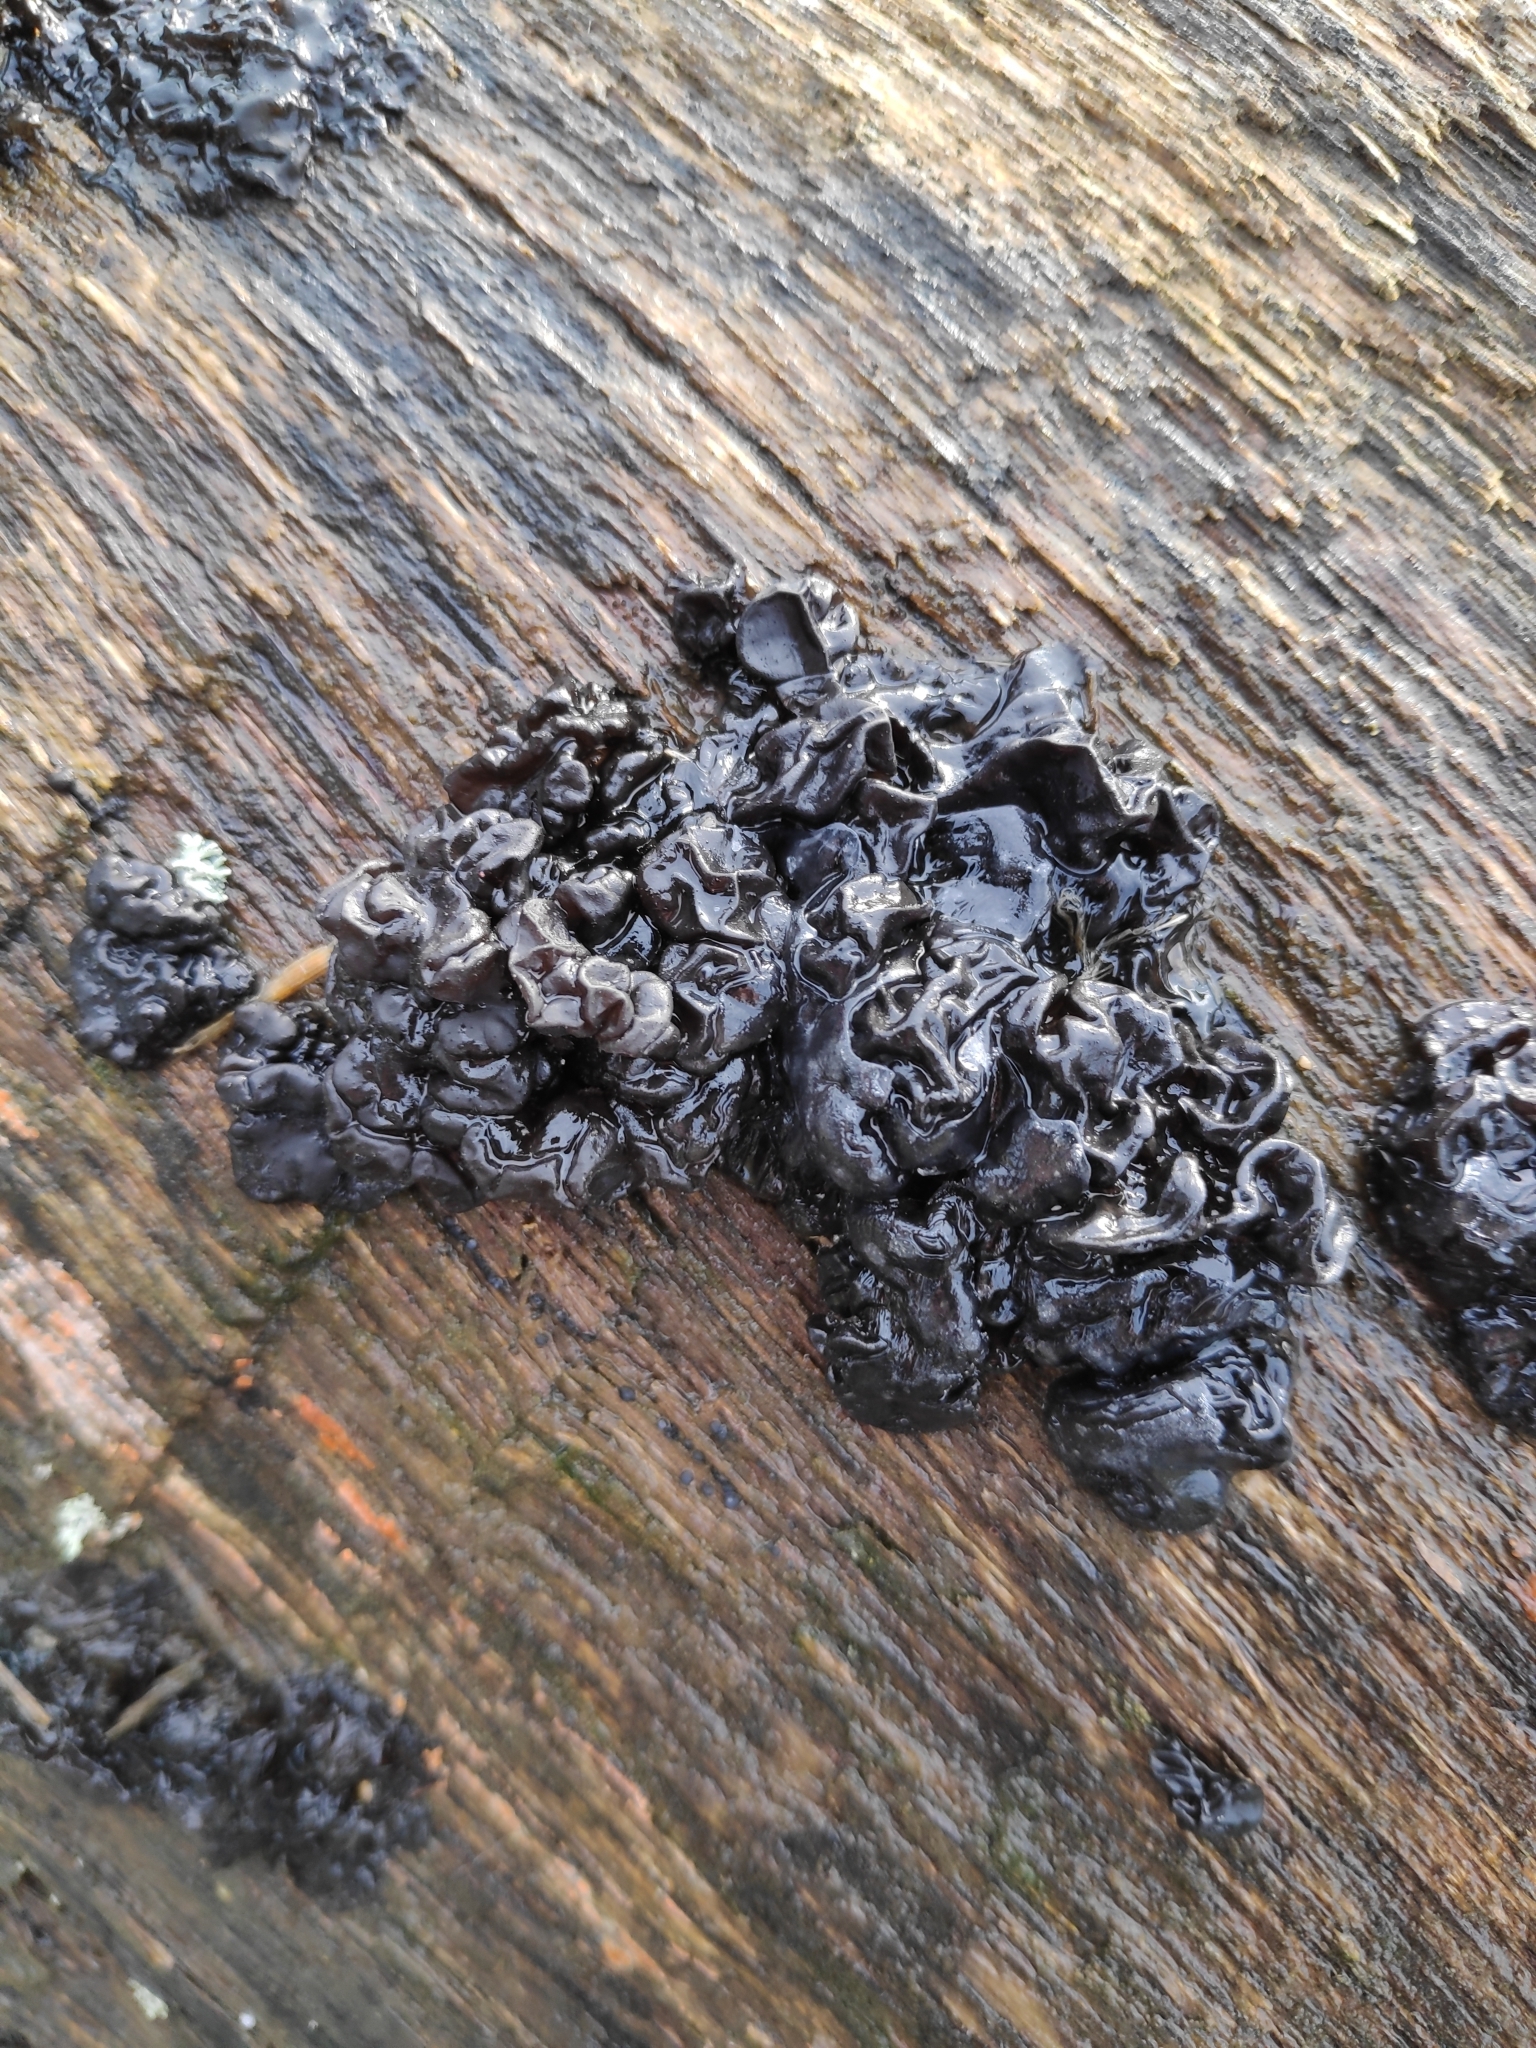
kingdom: Fungi
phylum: Basidiomycota
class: Agaricomycetes
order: Auriculariales
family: Auriculariaceae
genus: Exidia
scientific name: Exidia glandulosa
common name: Witches' butter
